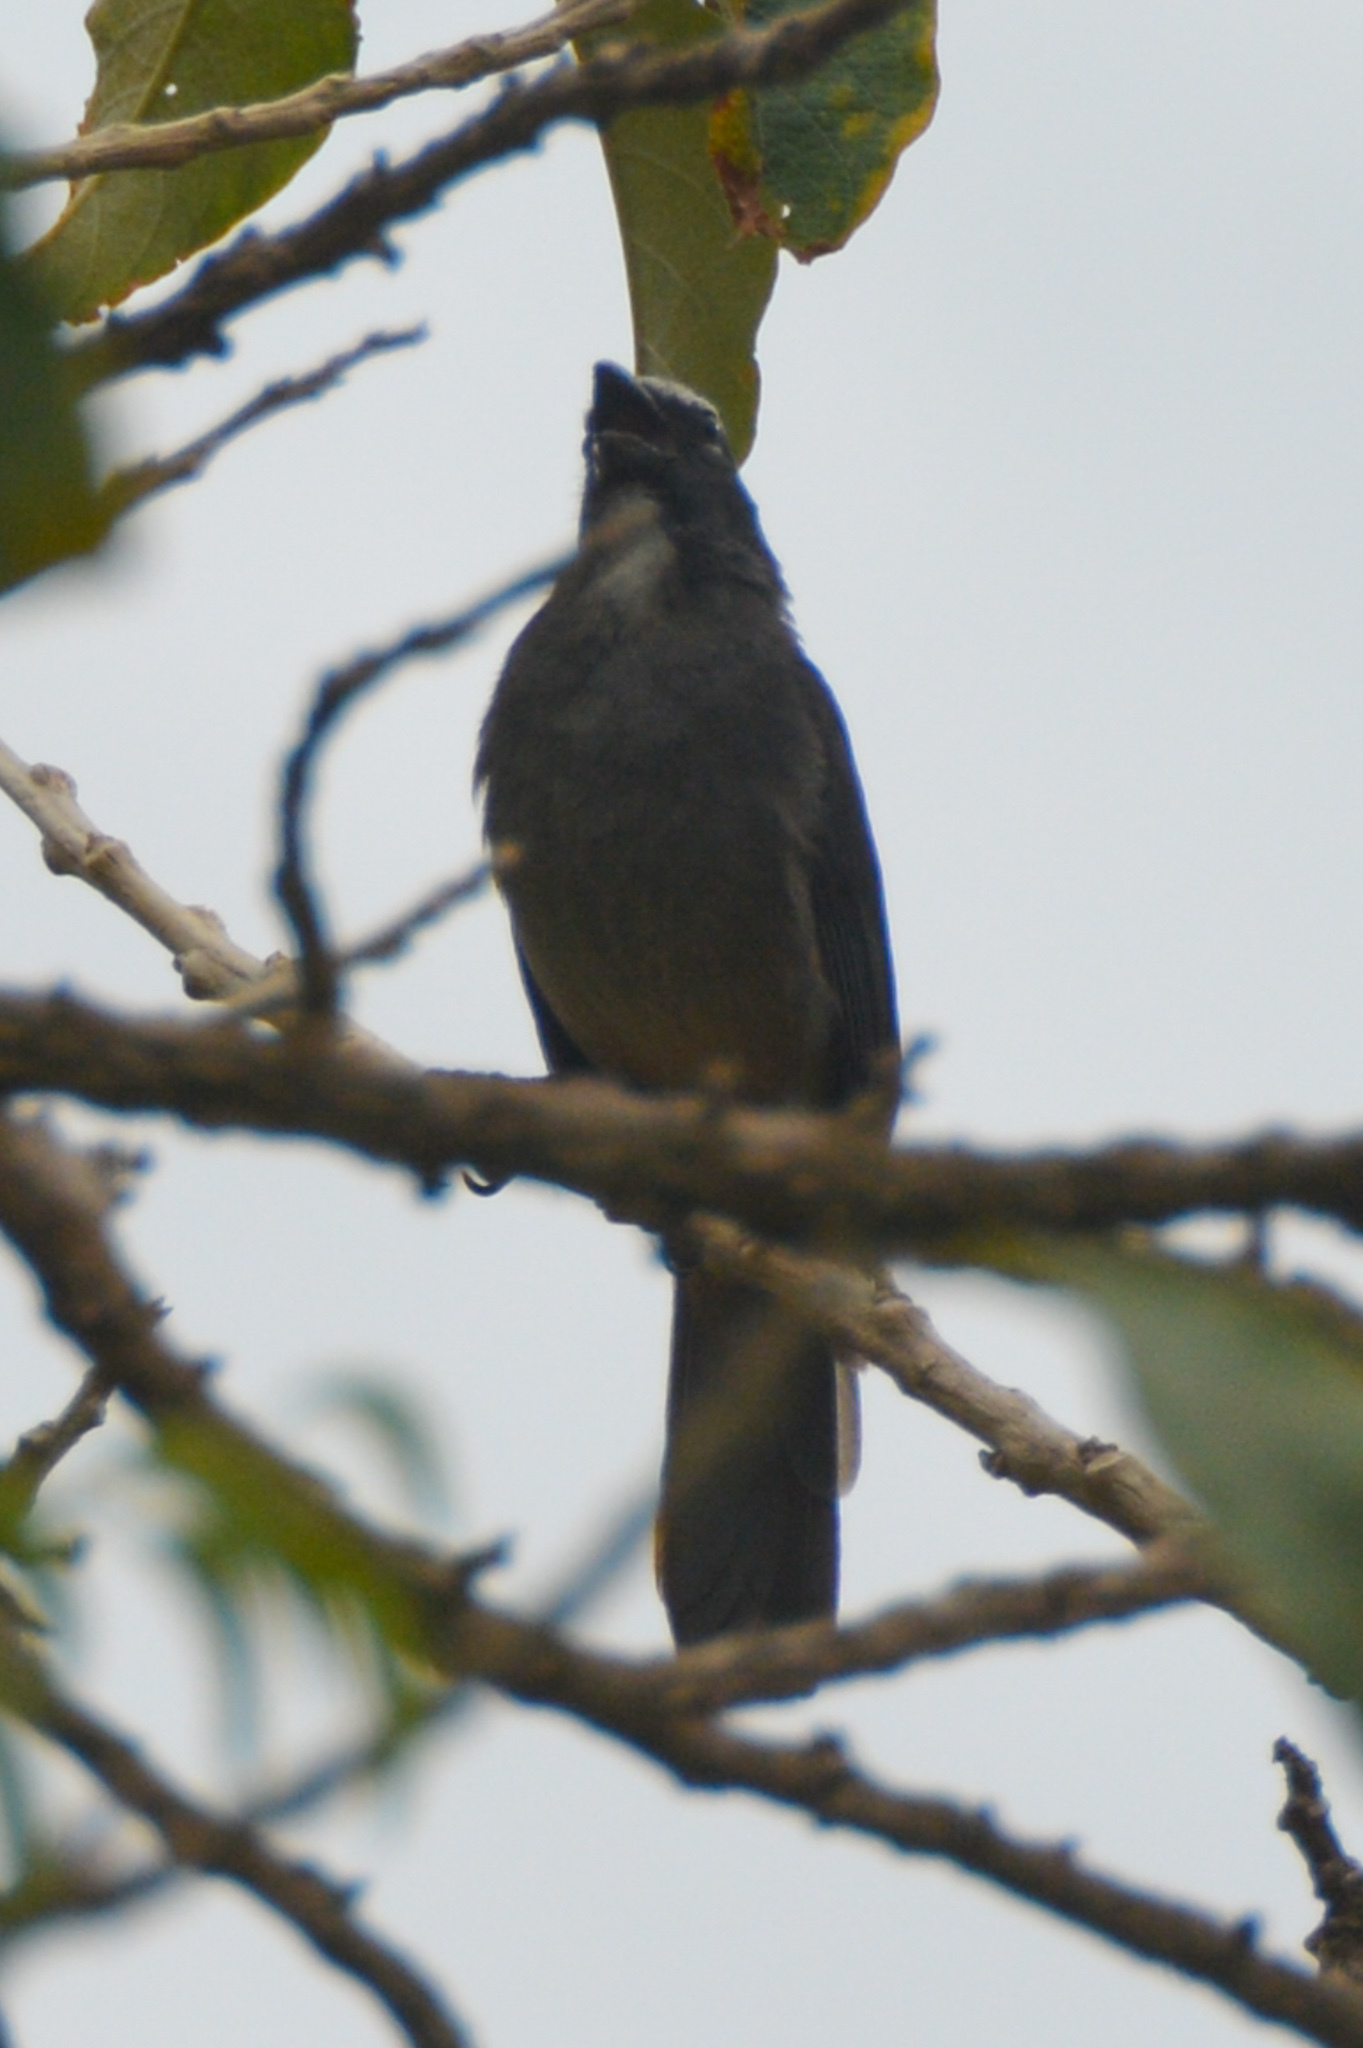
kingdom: Animalia
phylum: Chordata
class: Aves
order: Passeriformes
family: Thraupidae
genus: Saltator
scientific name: Saltator grandis
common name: Cinnamon-bellied saltator
